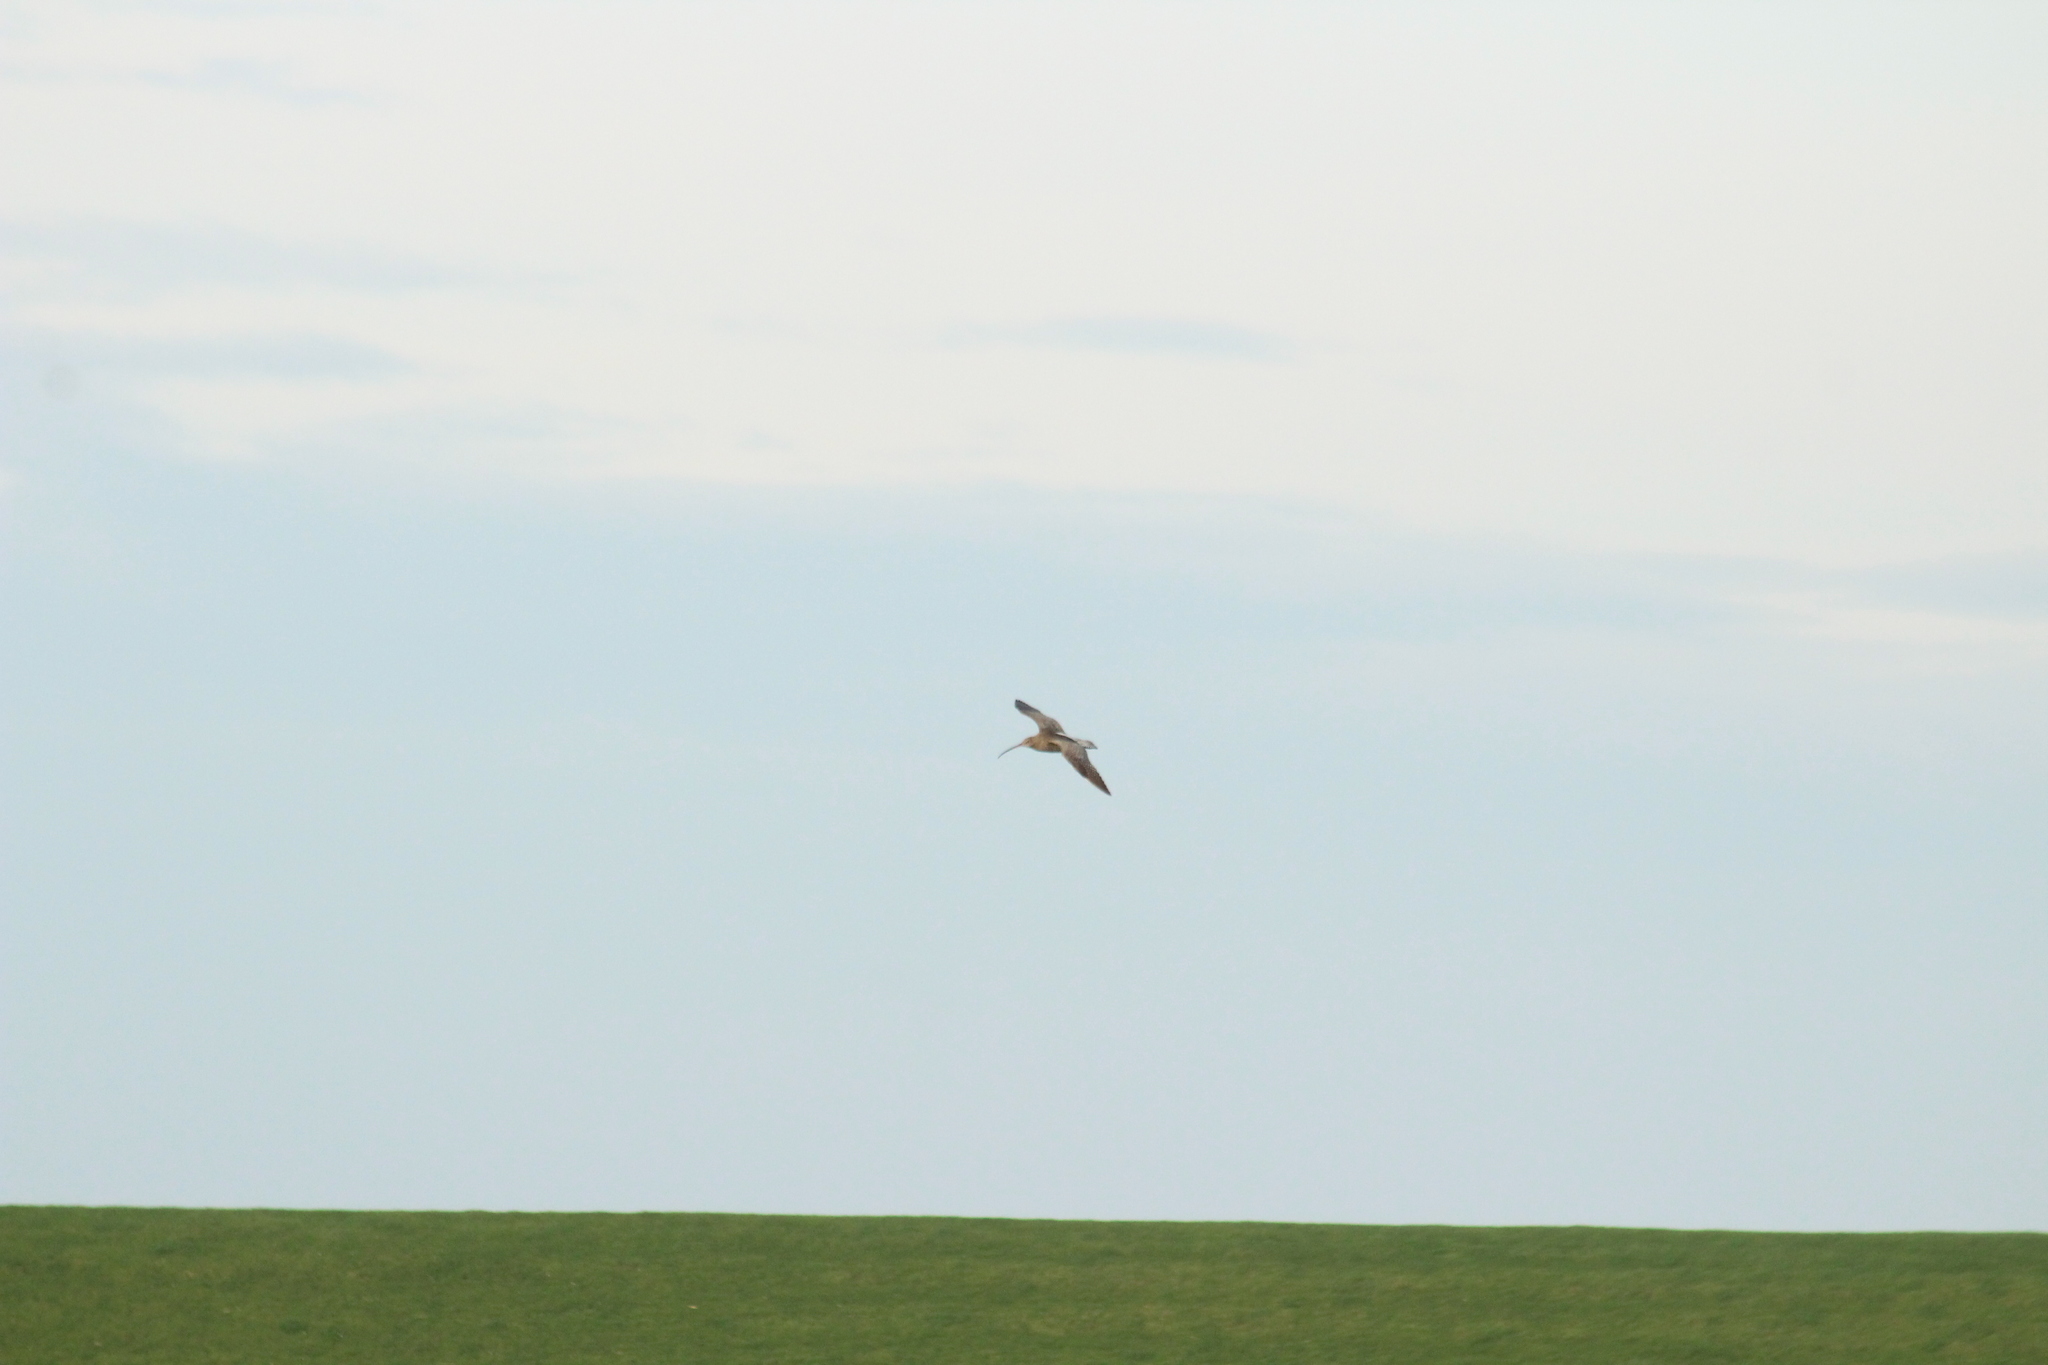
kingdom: Animalia
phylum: Chordata
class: Aves
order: Charadriiformes
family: Scolopacidae
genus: Numenius
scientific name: Numenius arquata
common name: Eurasian curlew
